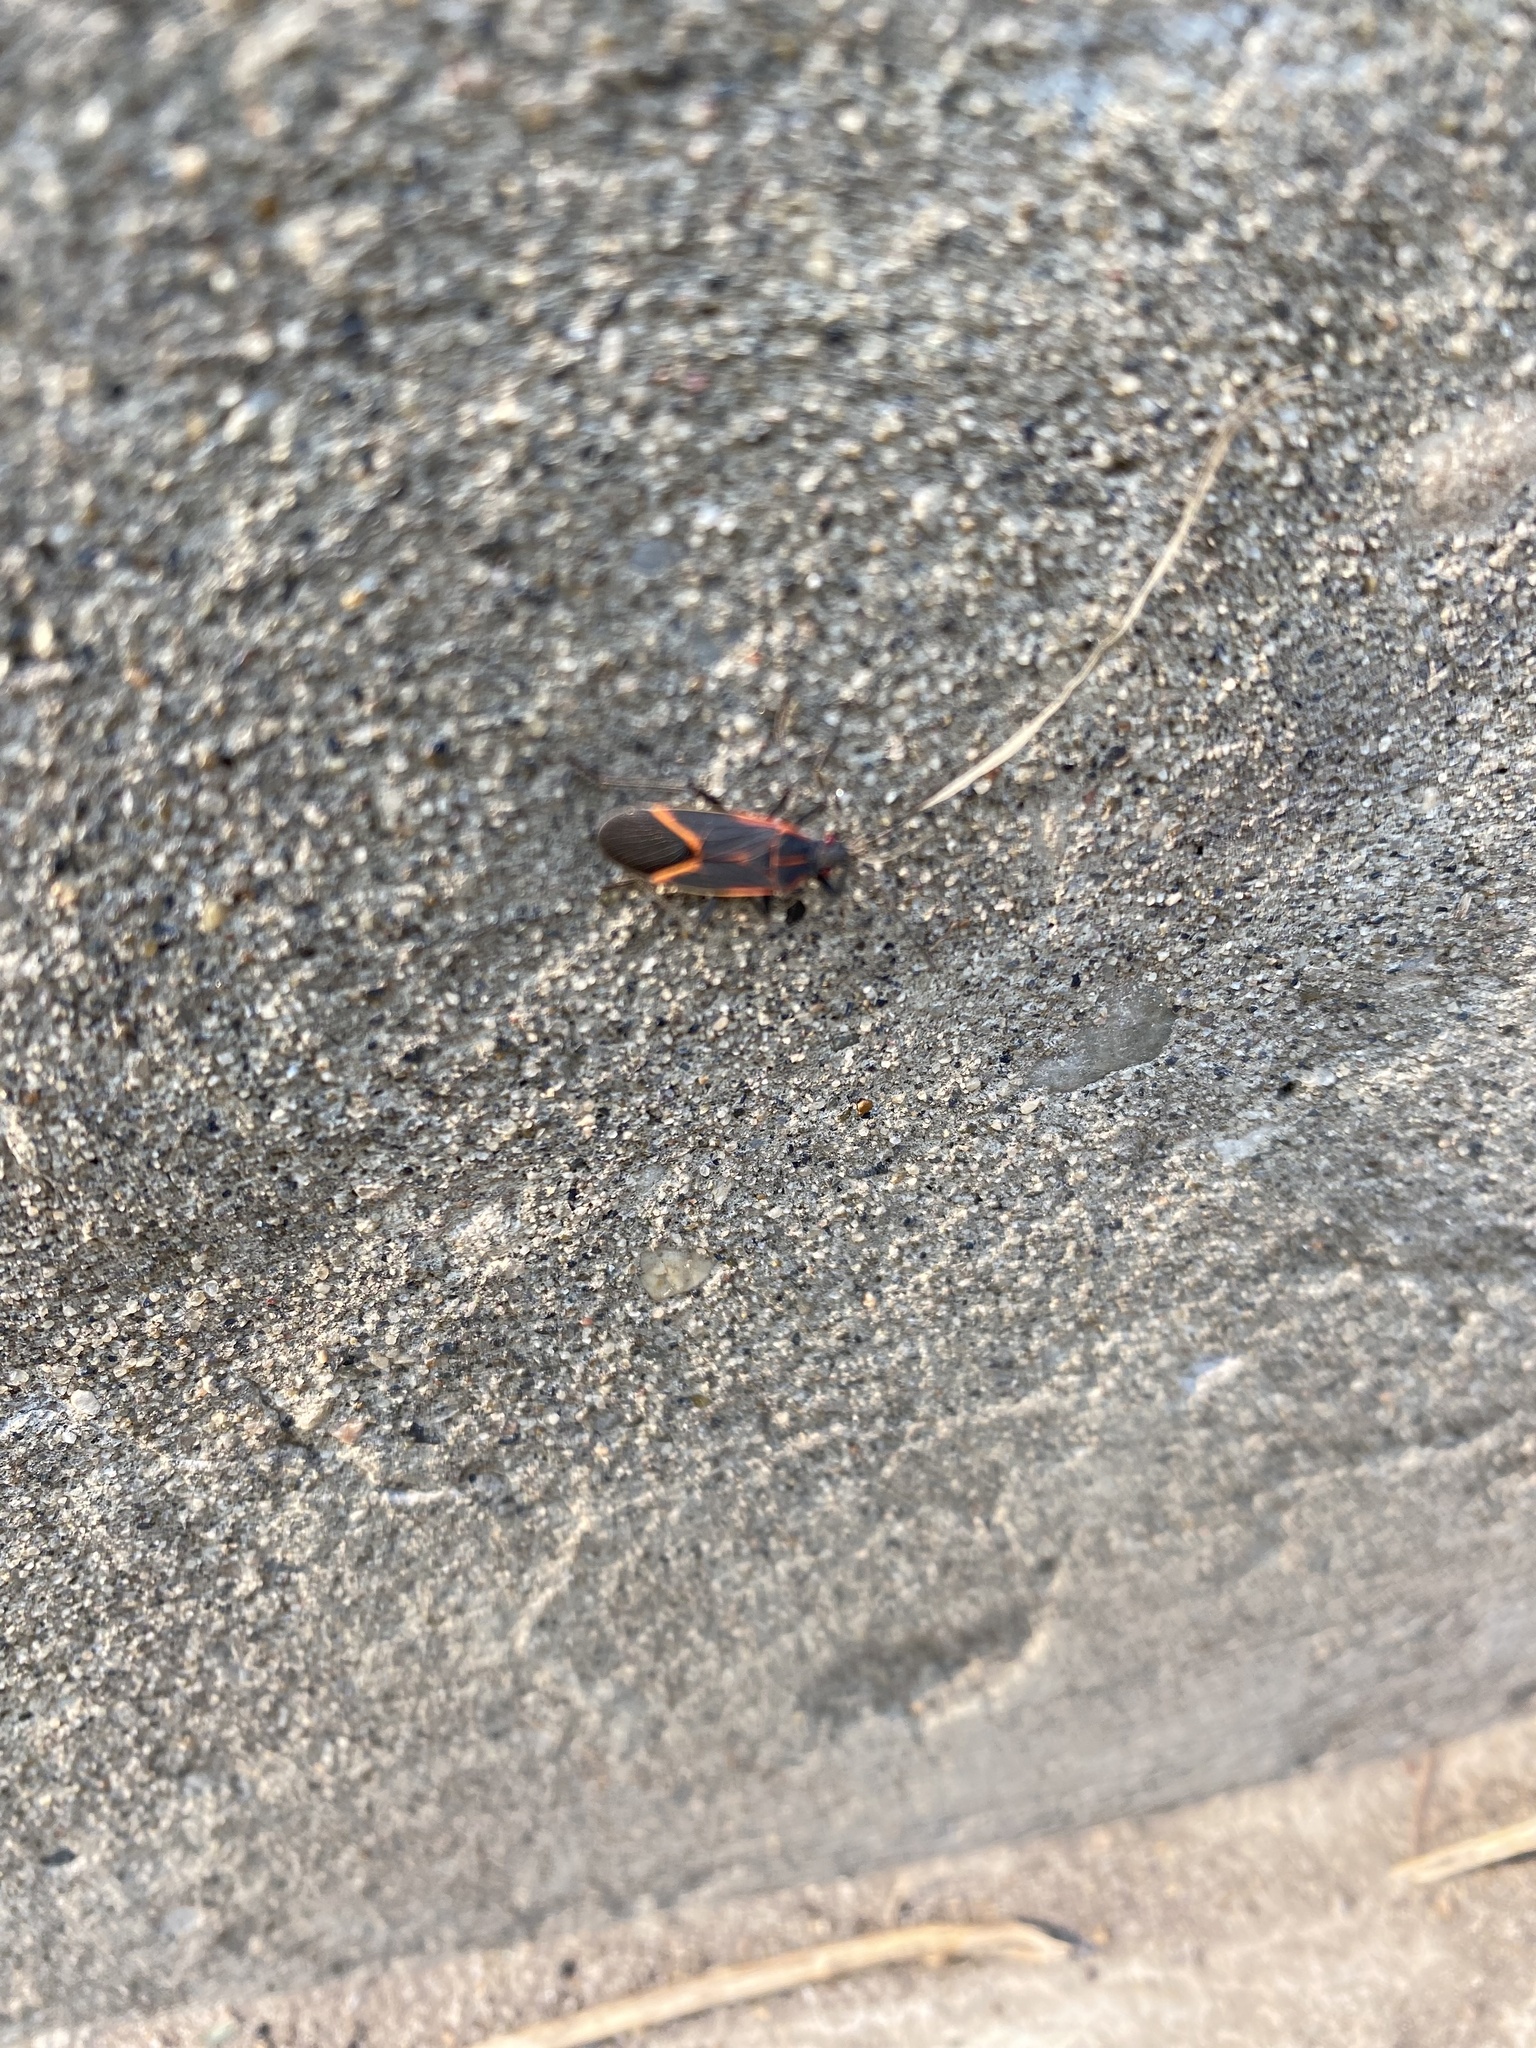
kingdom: Animalia
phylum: Arthropoda
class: Insecta
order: Hemiptera
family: Rhopalidae
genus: Boisea
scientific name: Boisea trivittata
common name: Boxelder bug
